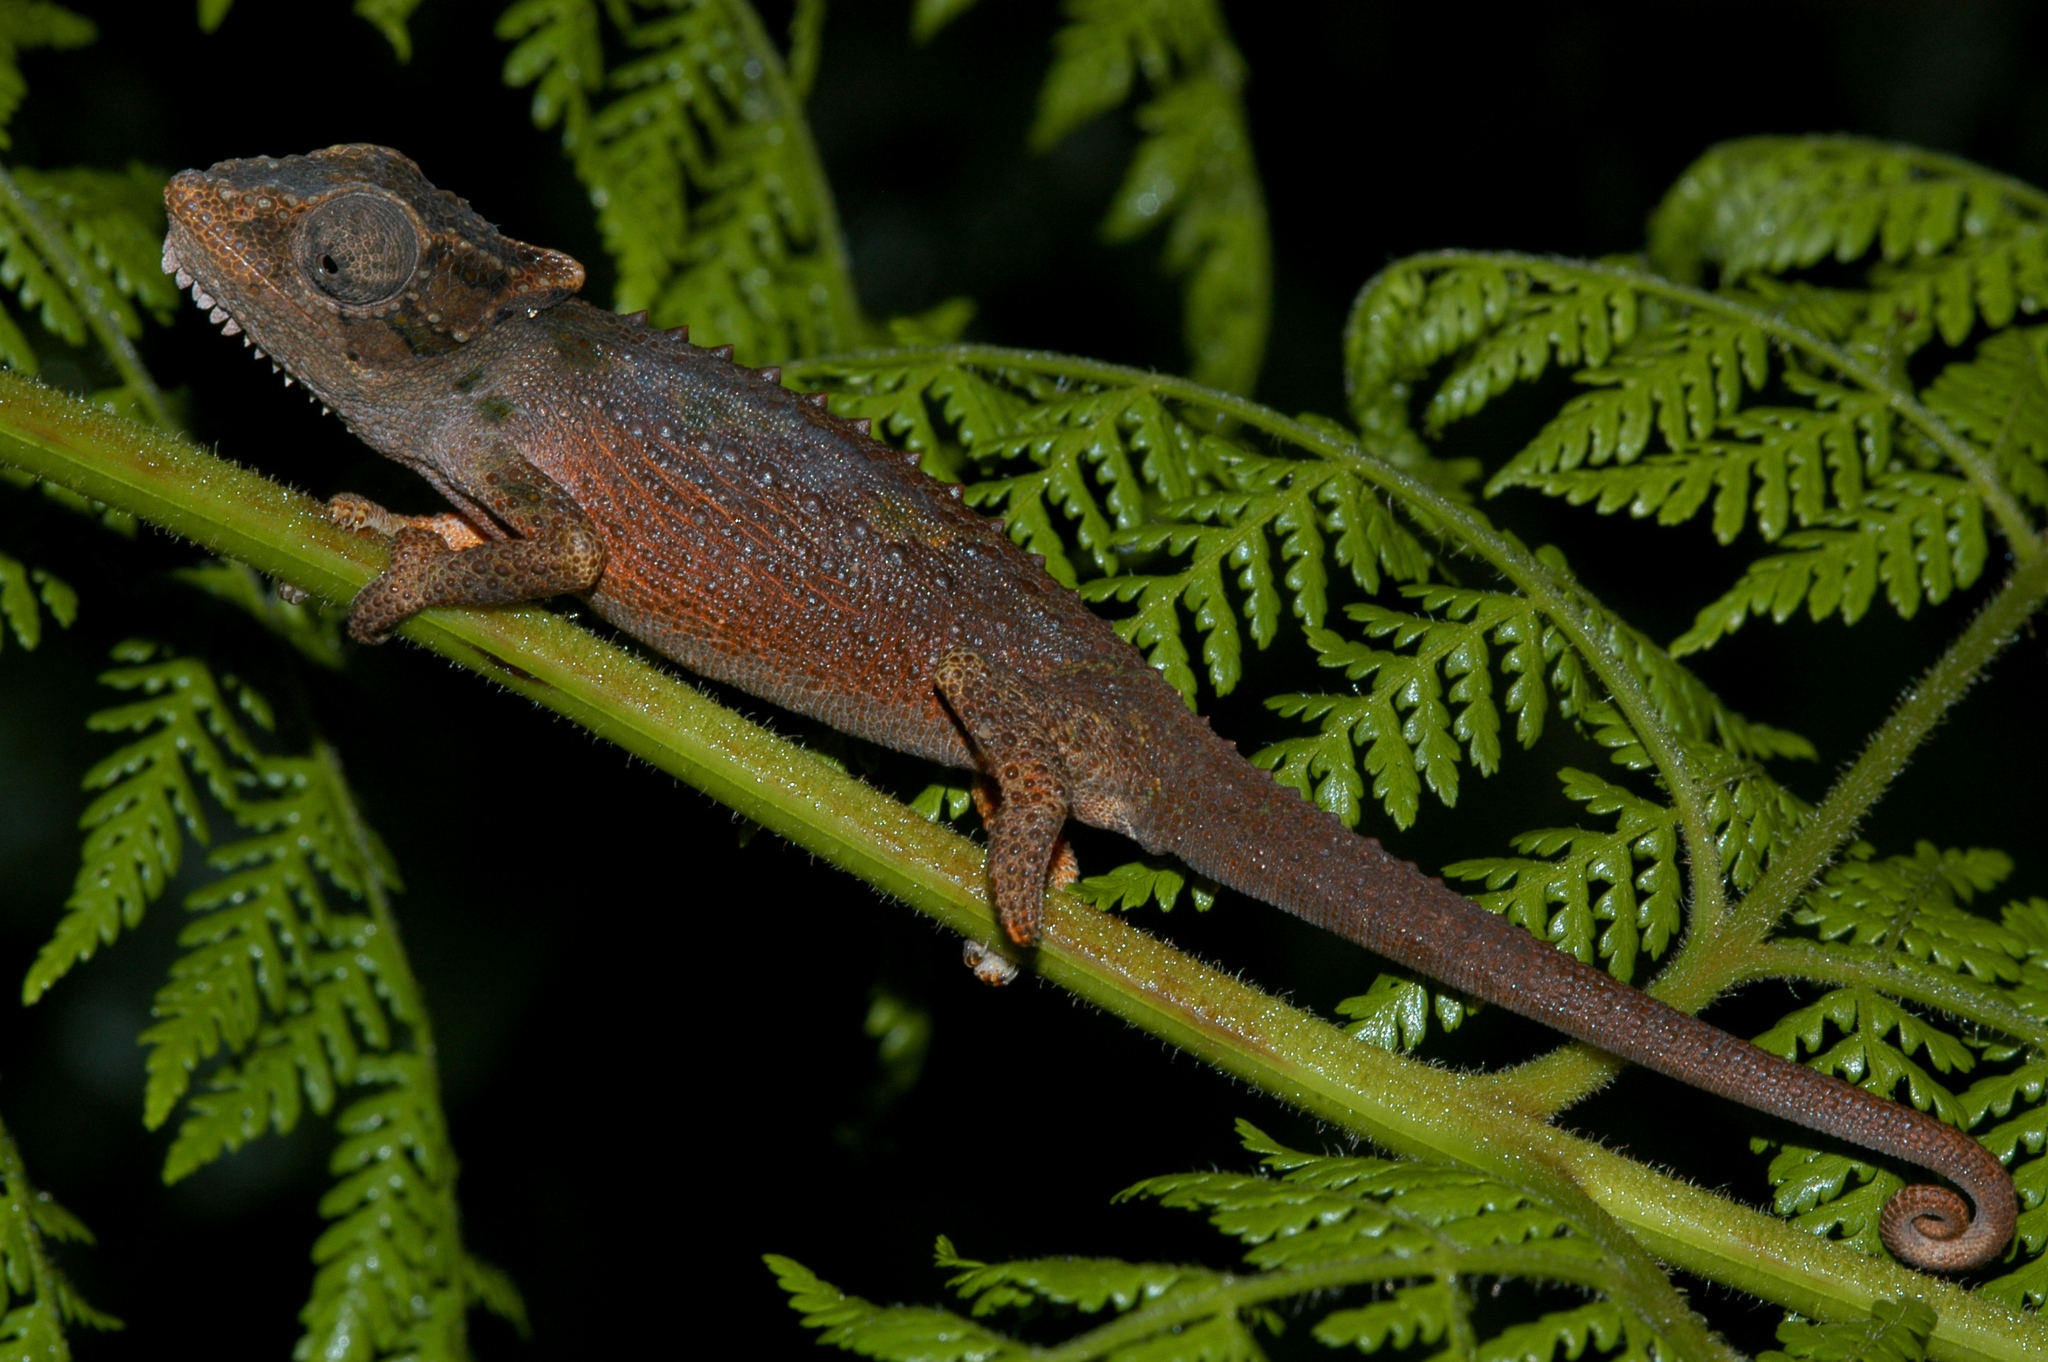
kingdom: Animalia
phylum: Chordata
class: Squamata
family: Chamaeleonidae
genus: Bradypodion
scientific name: Bradypodion nemorale
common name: Qudeni dwarf chameleon
